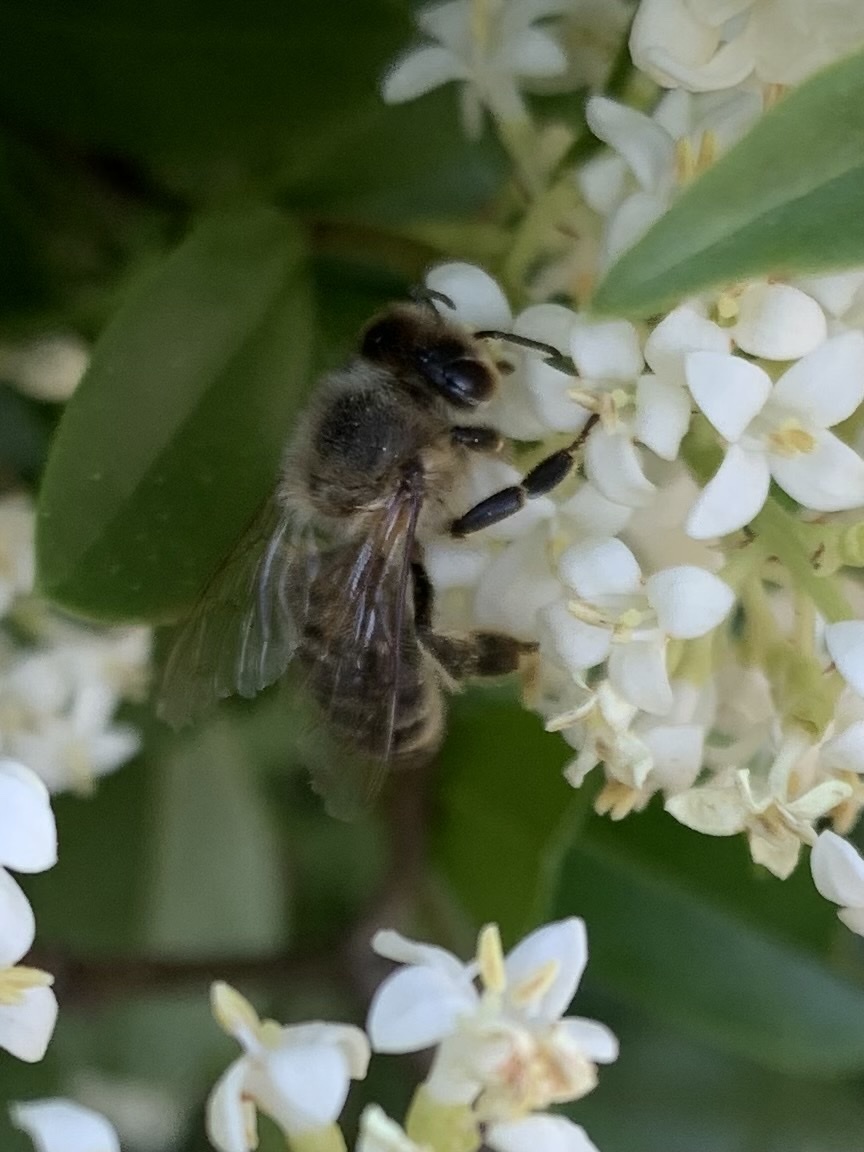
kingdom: Animalia
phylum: Arthropoda
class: Insecta
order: Hymenoptera
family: Apidae
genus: Apis
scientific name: Apis mellifera
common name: Honey bee
